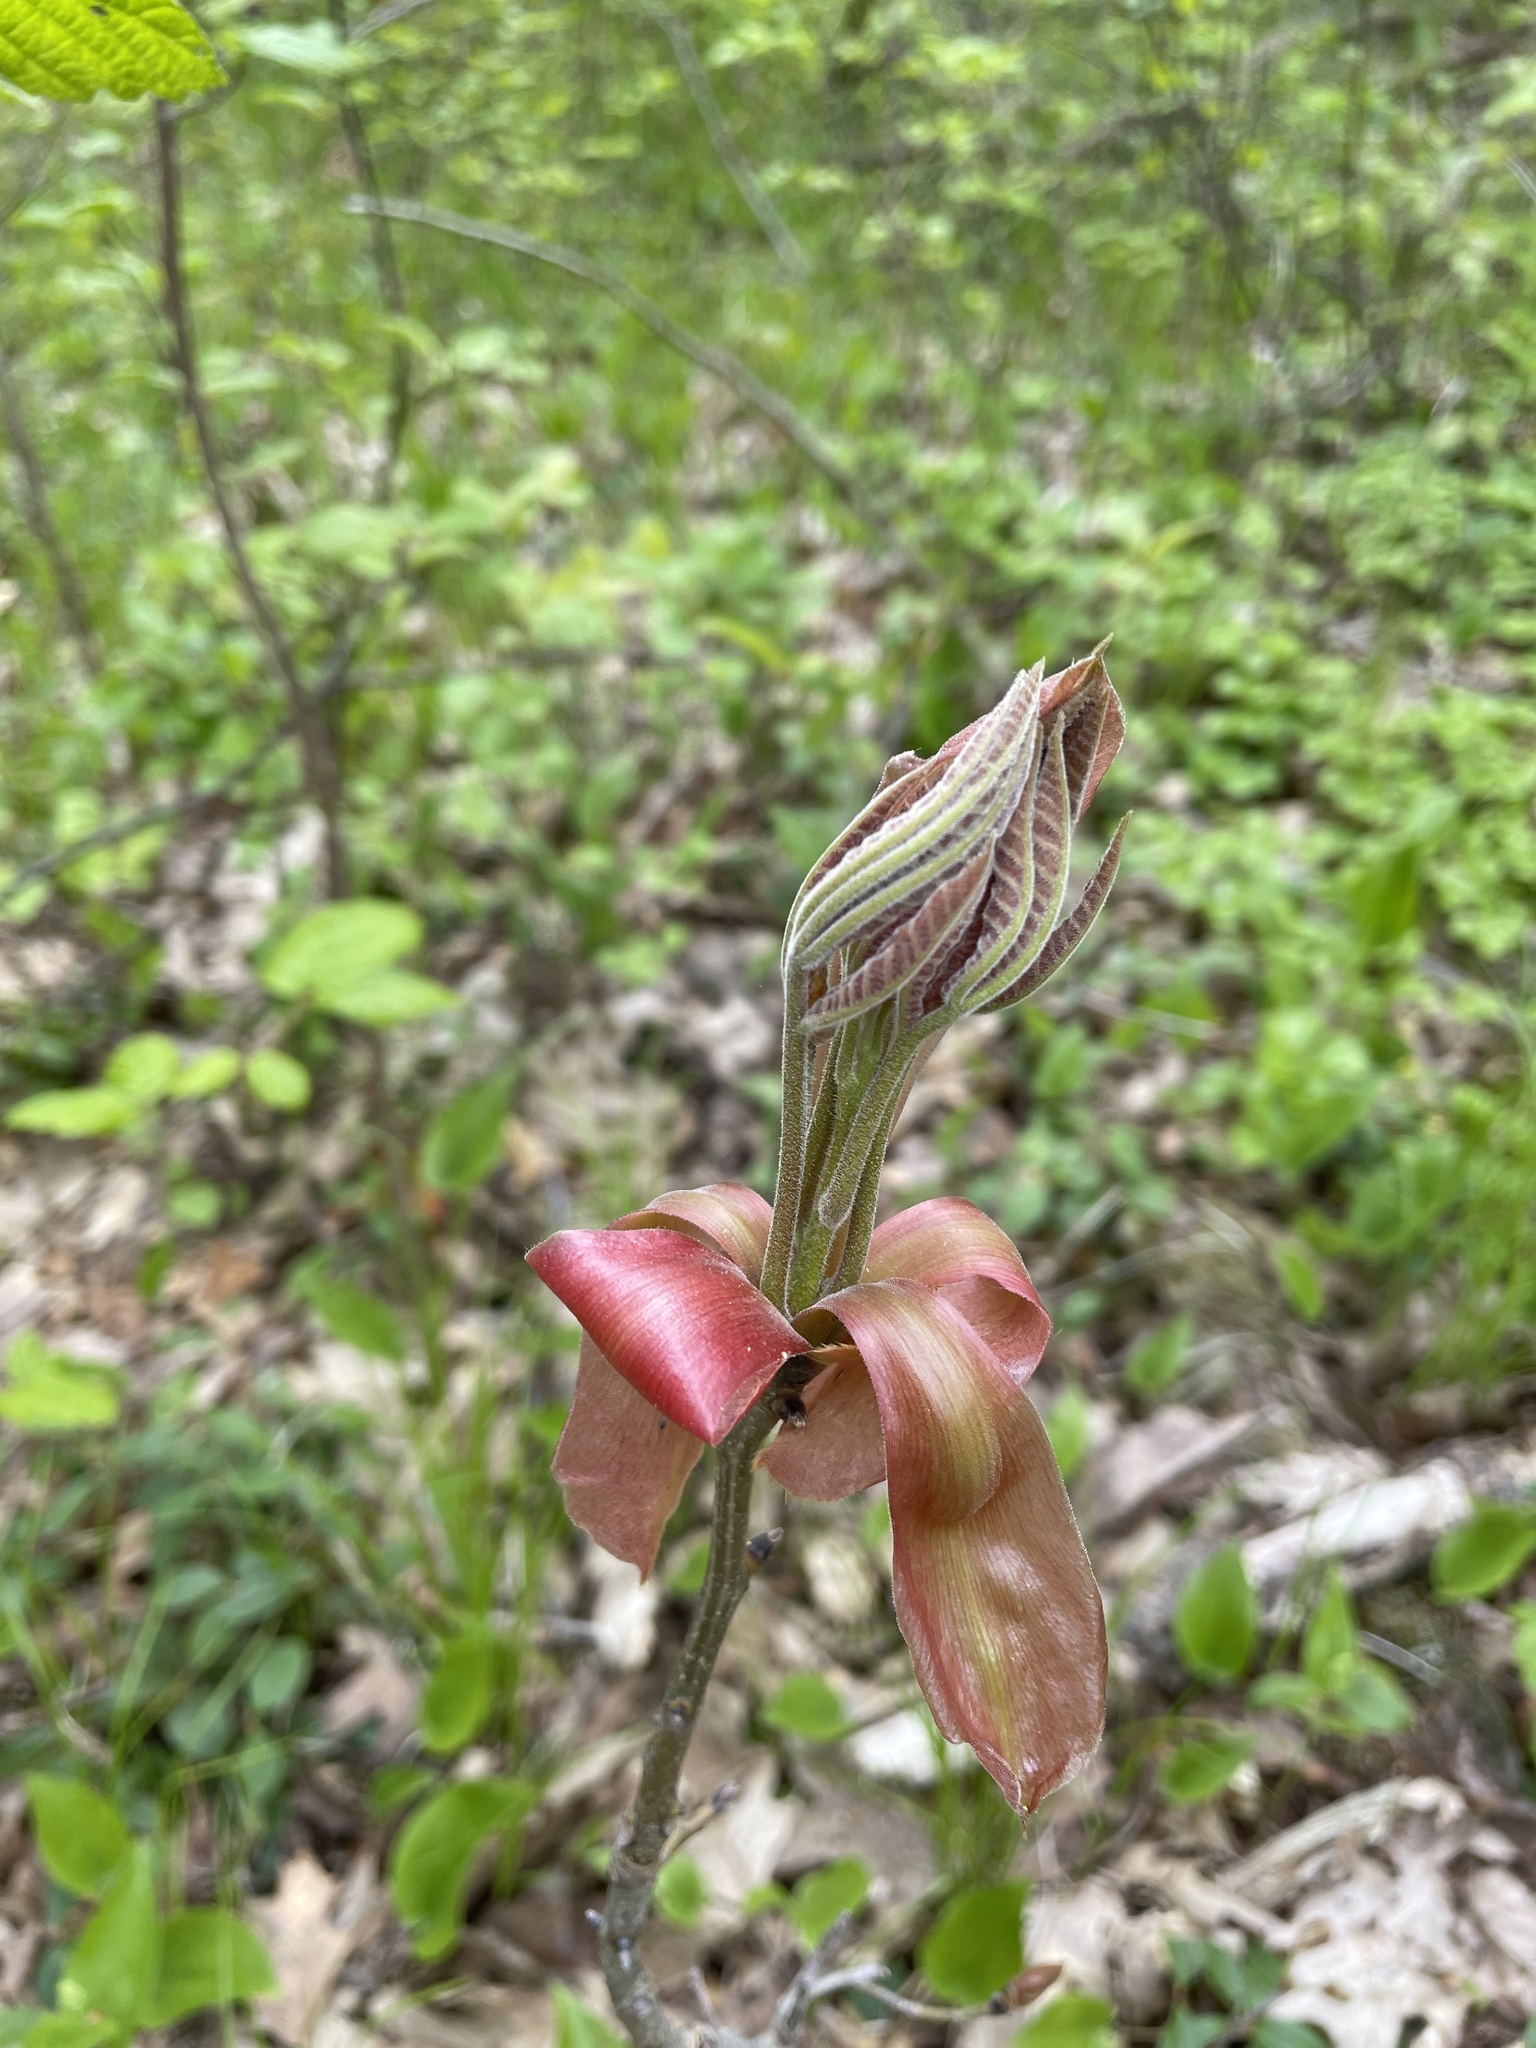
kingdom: Plantae
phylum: Tracheophyta
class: Magnoliopsida
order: Fagales
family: Juglandaceae
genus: Carya
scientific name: Carya ovata
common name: Shagbark hickory
